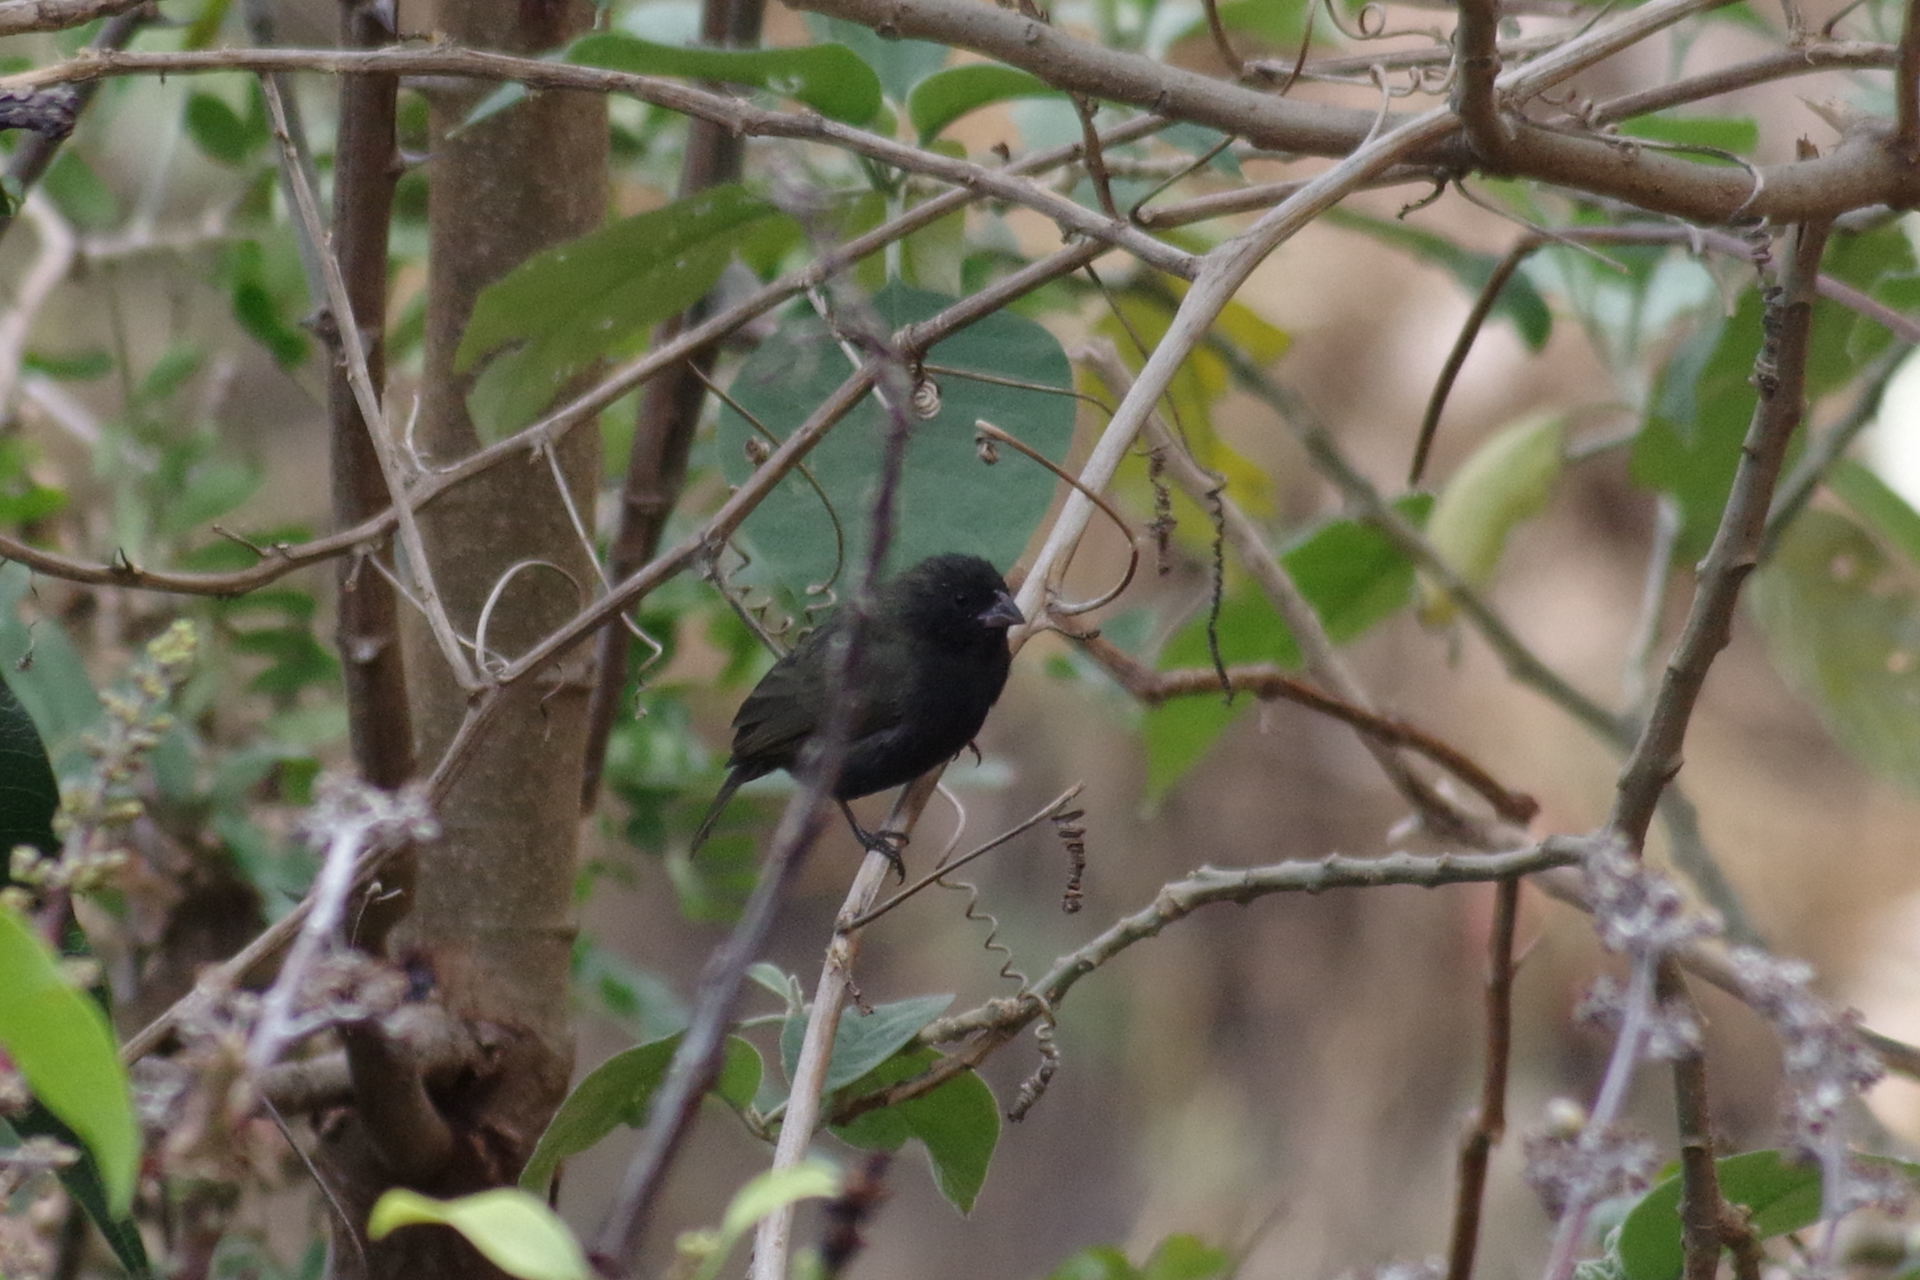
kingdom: Animalia
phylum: Chordata
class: Aves
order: Passeriformes
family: Thraupidae
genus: Melanospiza
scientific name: Melanospiza bicolor
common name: Black-faced grassquit
